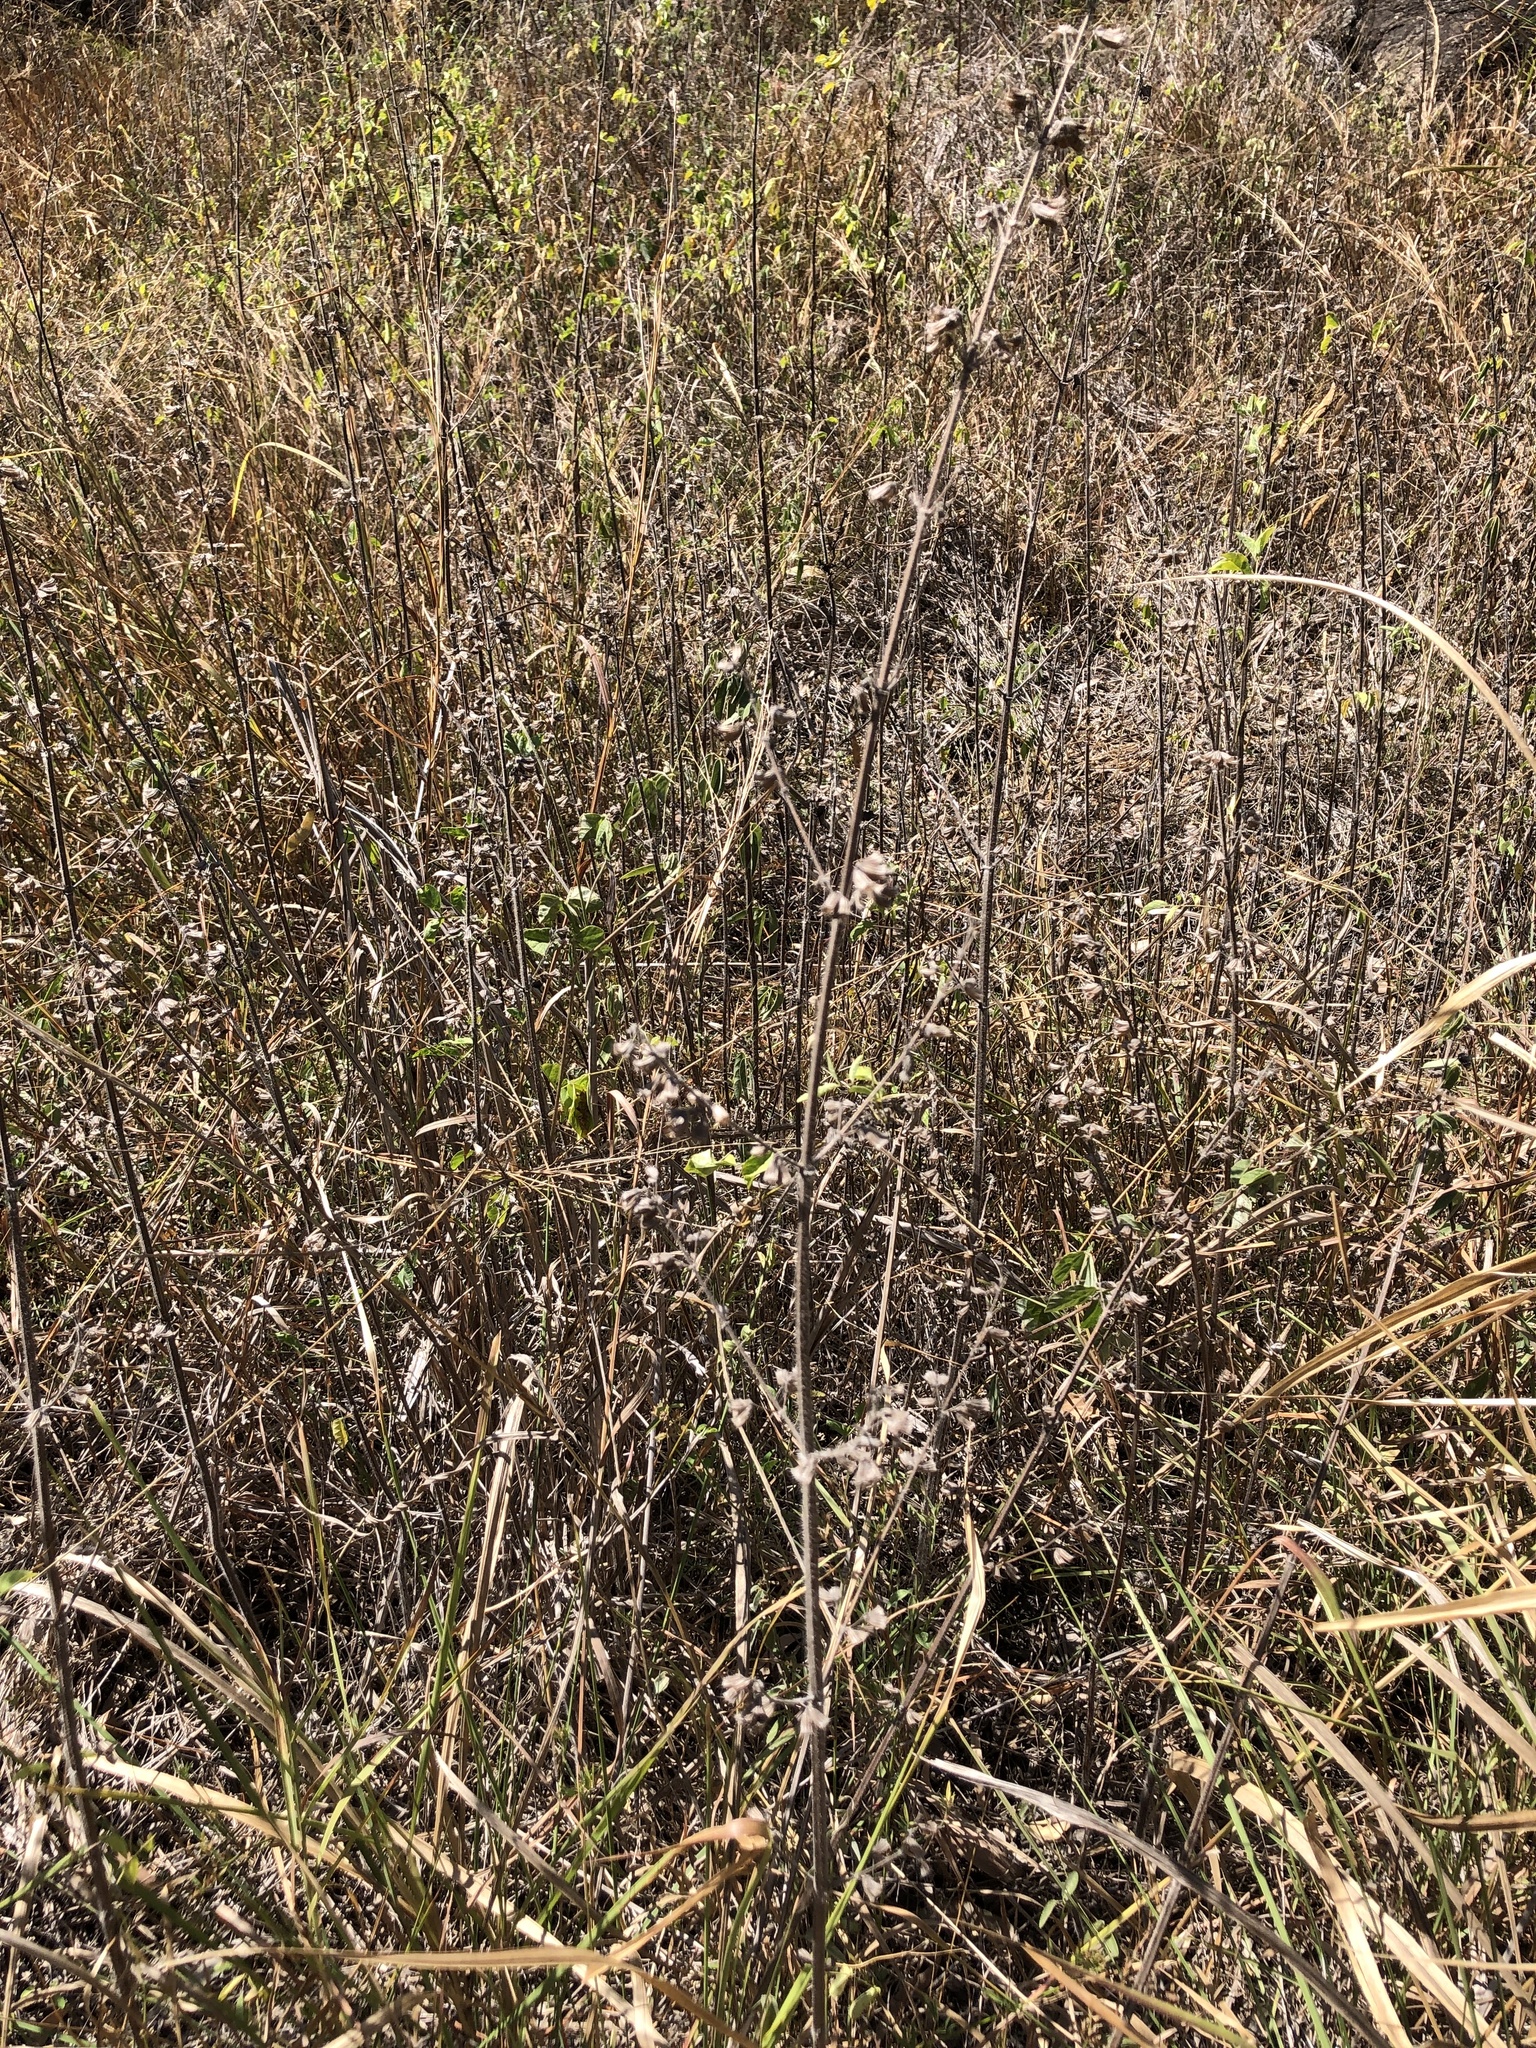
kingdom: Plantae
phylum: Tracheophyta
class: Magnoliopsida
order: Lamiales
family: Lamiaceae
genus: Mesosphaerum
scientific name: Mesosphaerum suaveolens
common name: Pignut
